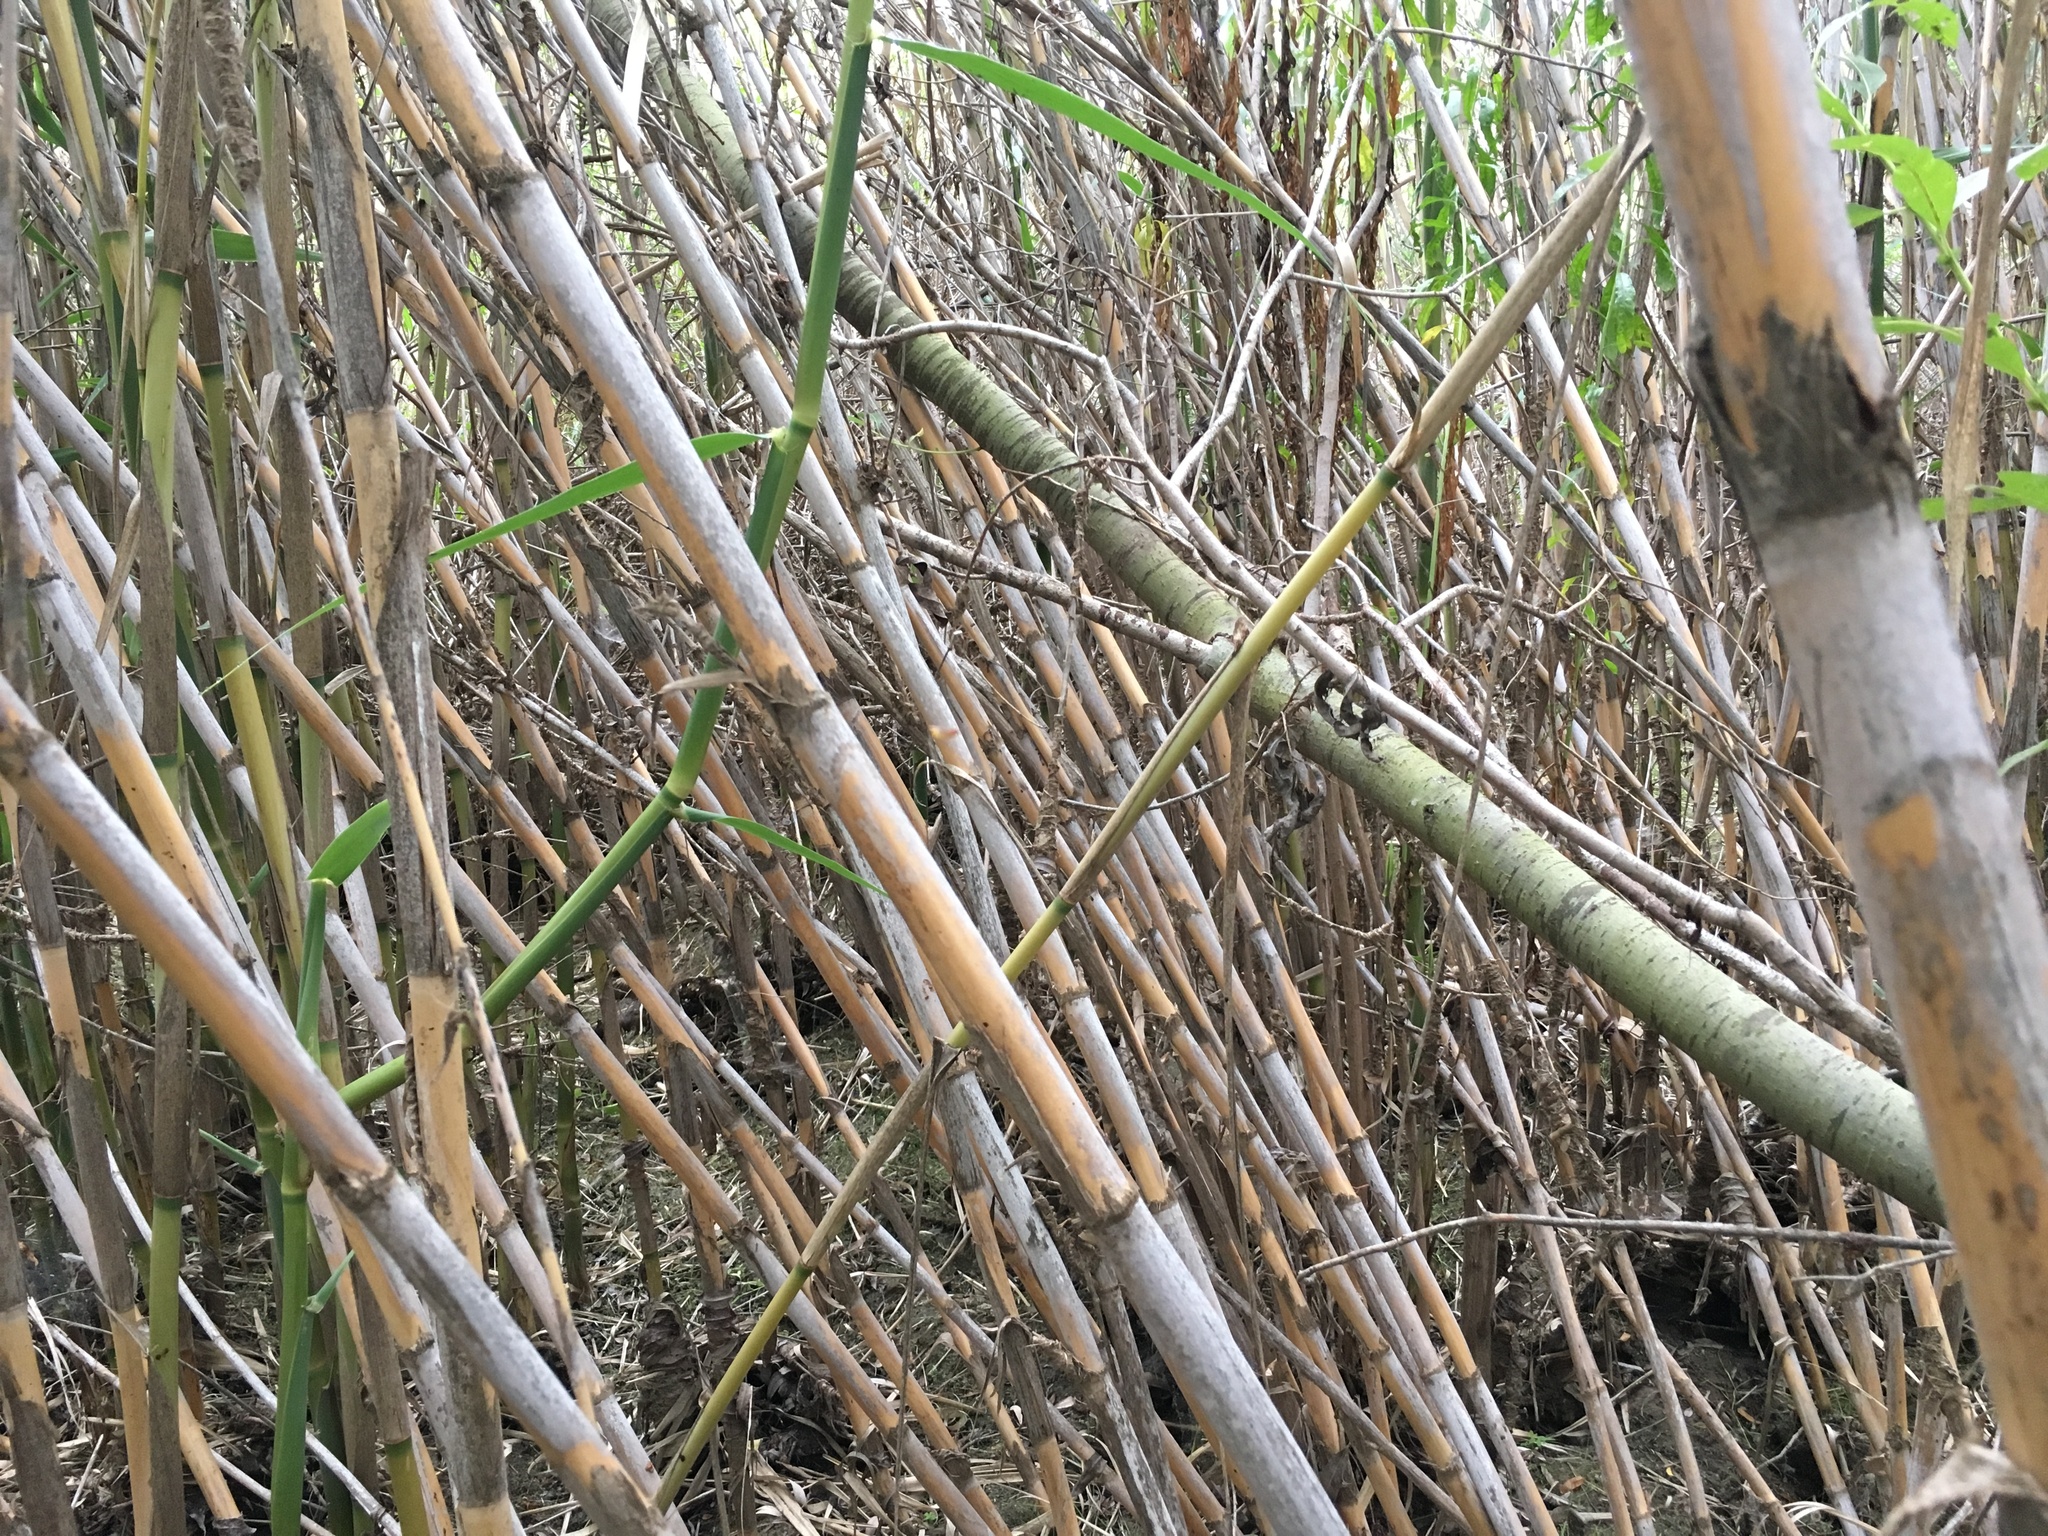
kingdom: Plantae
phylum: Tracheophyta
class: Liliopsida
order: Poales
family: Poaceae
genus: Arundo
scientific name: Arundo donax
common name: Giant reed
